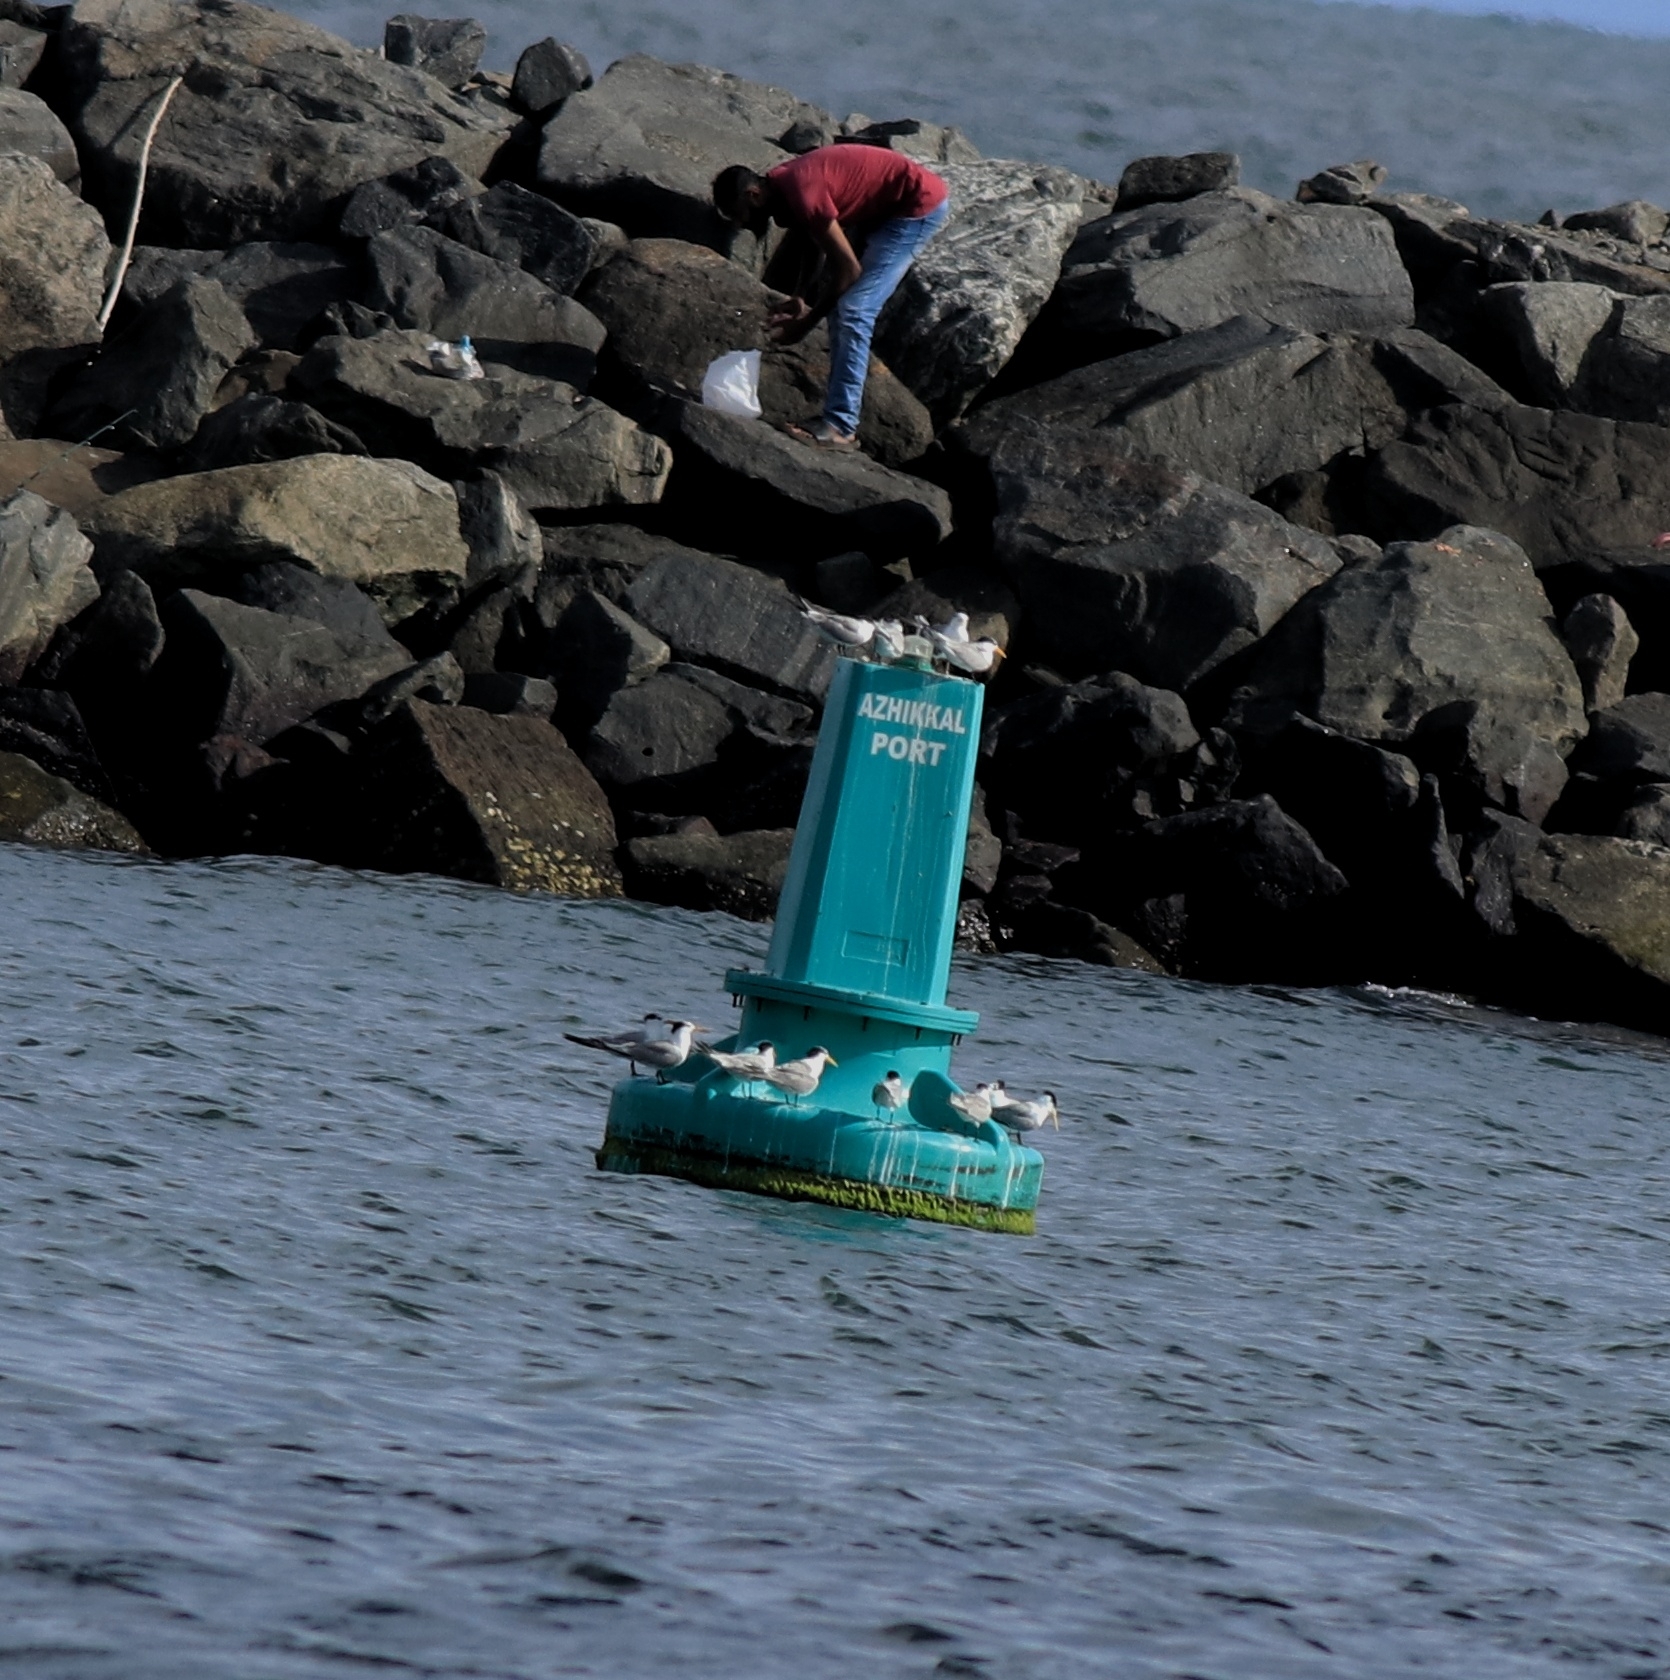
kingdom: Animalia
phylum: Chordata
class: Aves
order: Charadriiformes
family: Laridae
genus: Thalasseus
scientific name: Thalasseus bergii
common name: Greater crested tern
